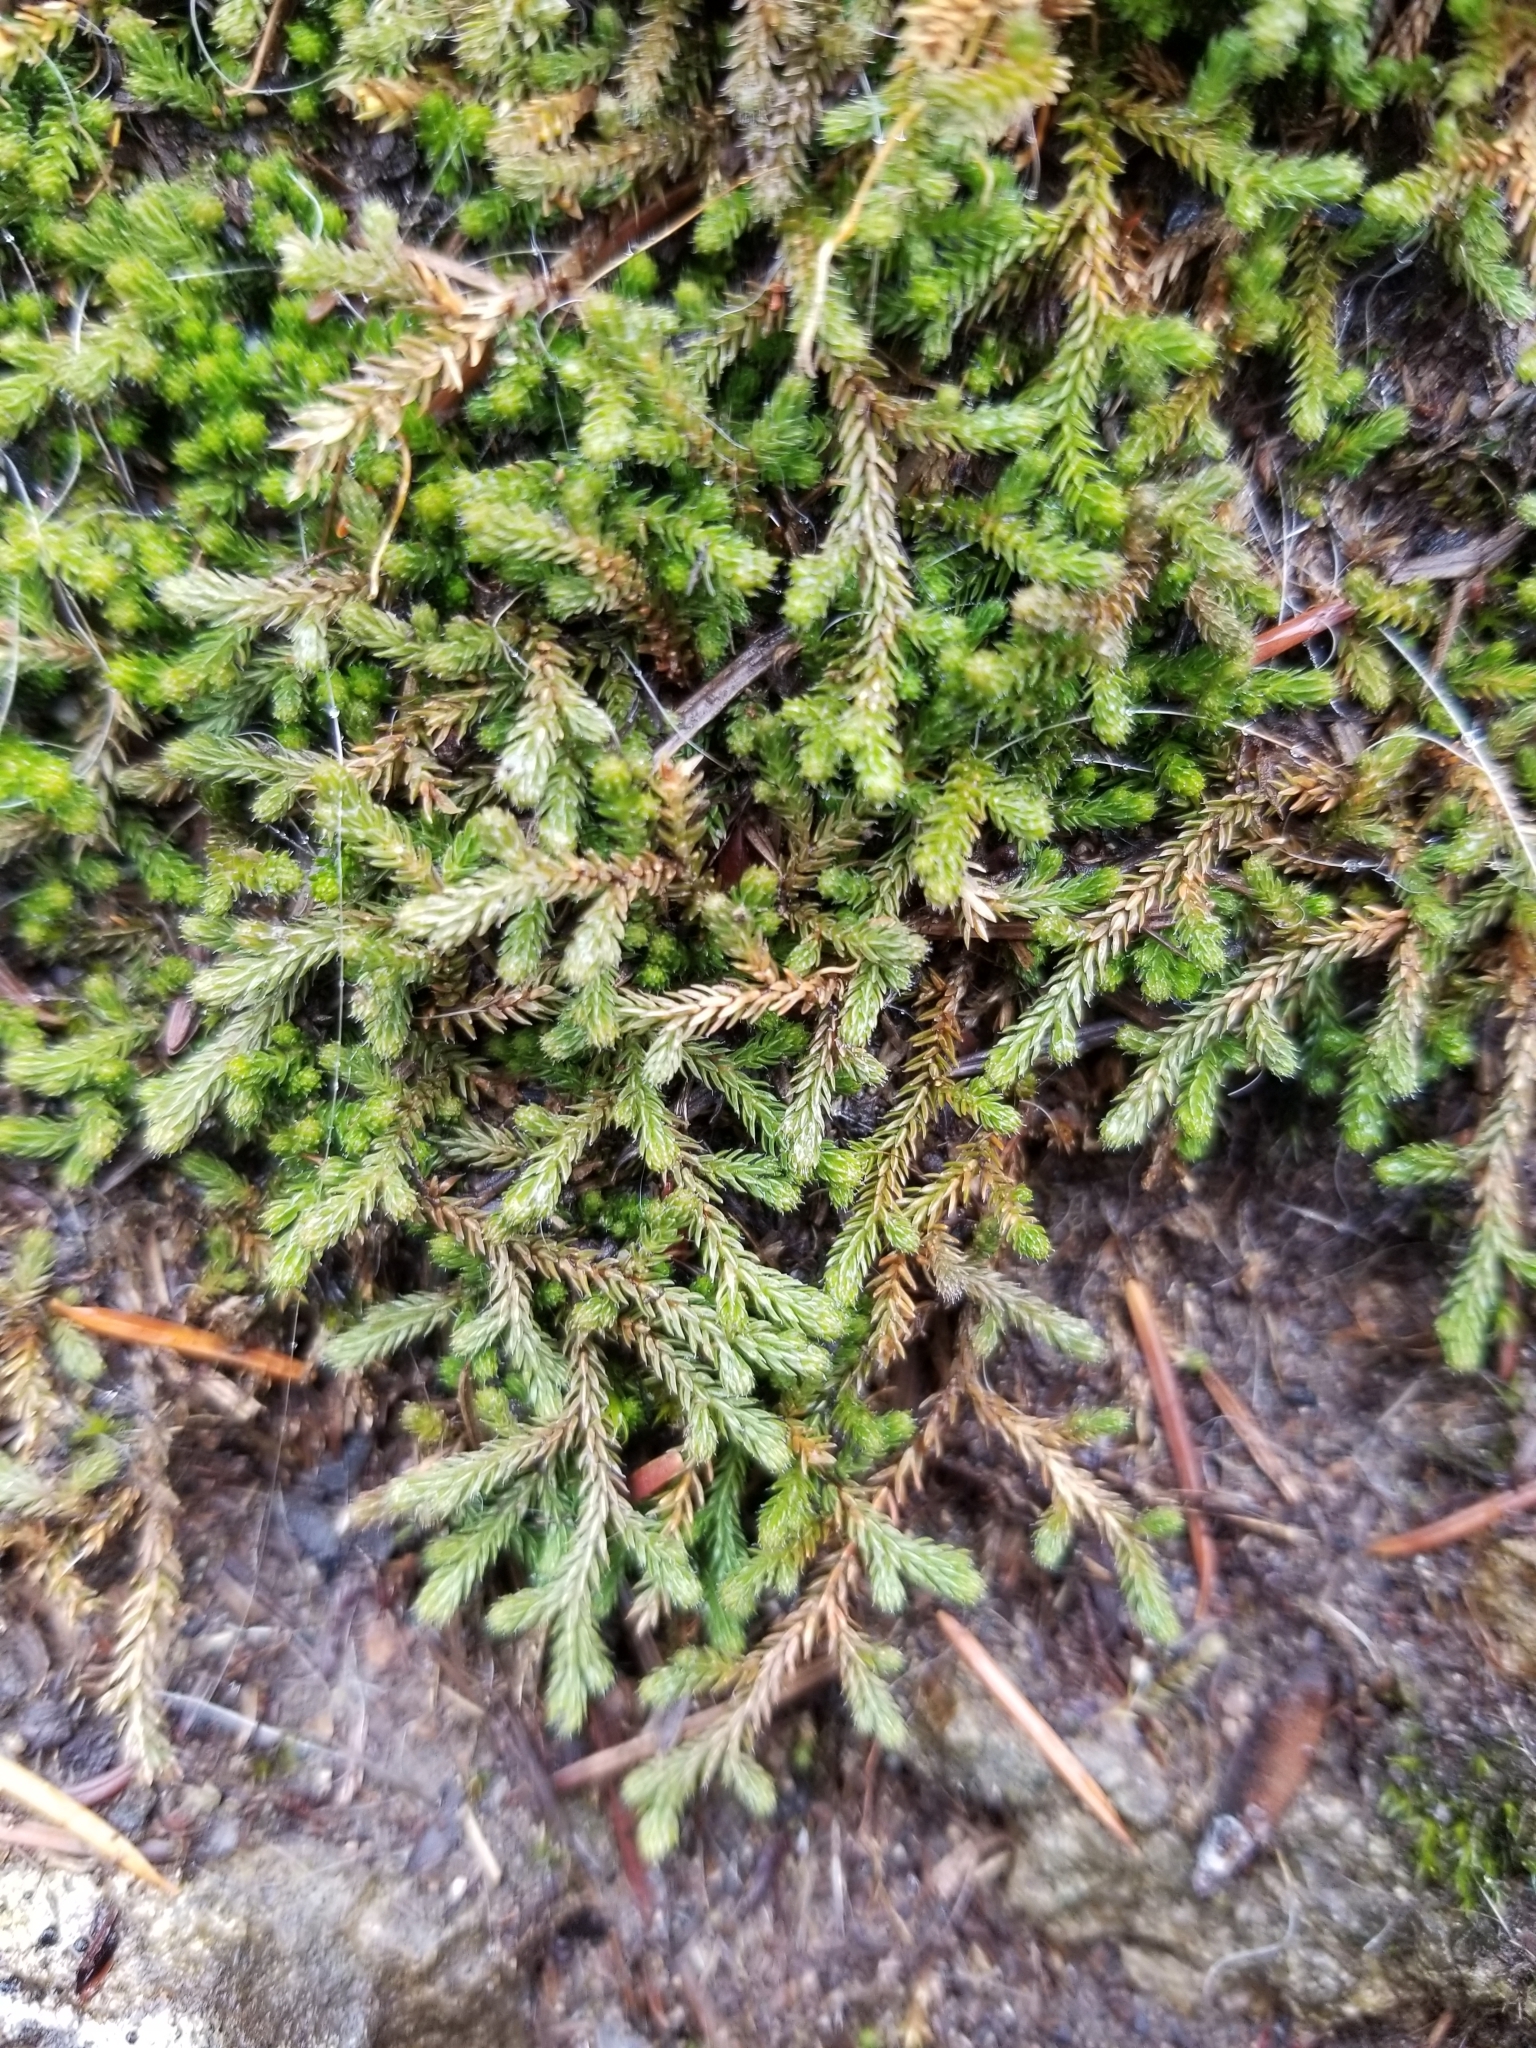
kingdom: Plantae
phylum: Tracheophyta
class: Lycopodiopsida
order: Selaginellales
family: Selaginellaceae
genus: Selaginella
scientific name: Selaginella wallacei
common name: Wallace's selaginella
